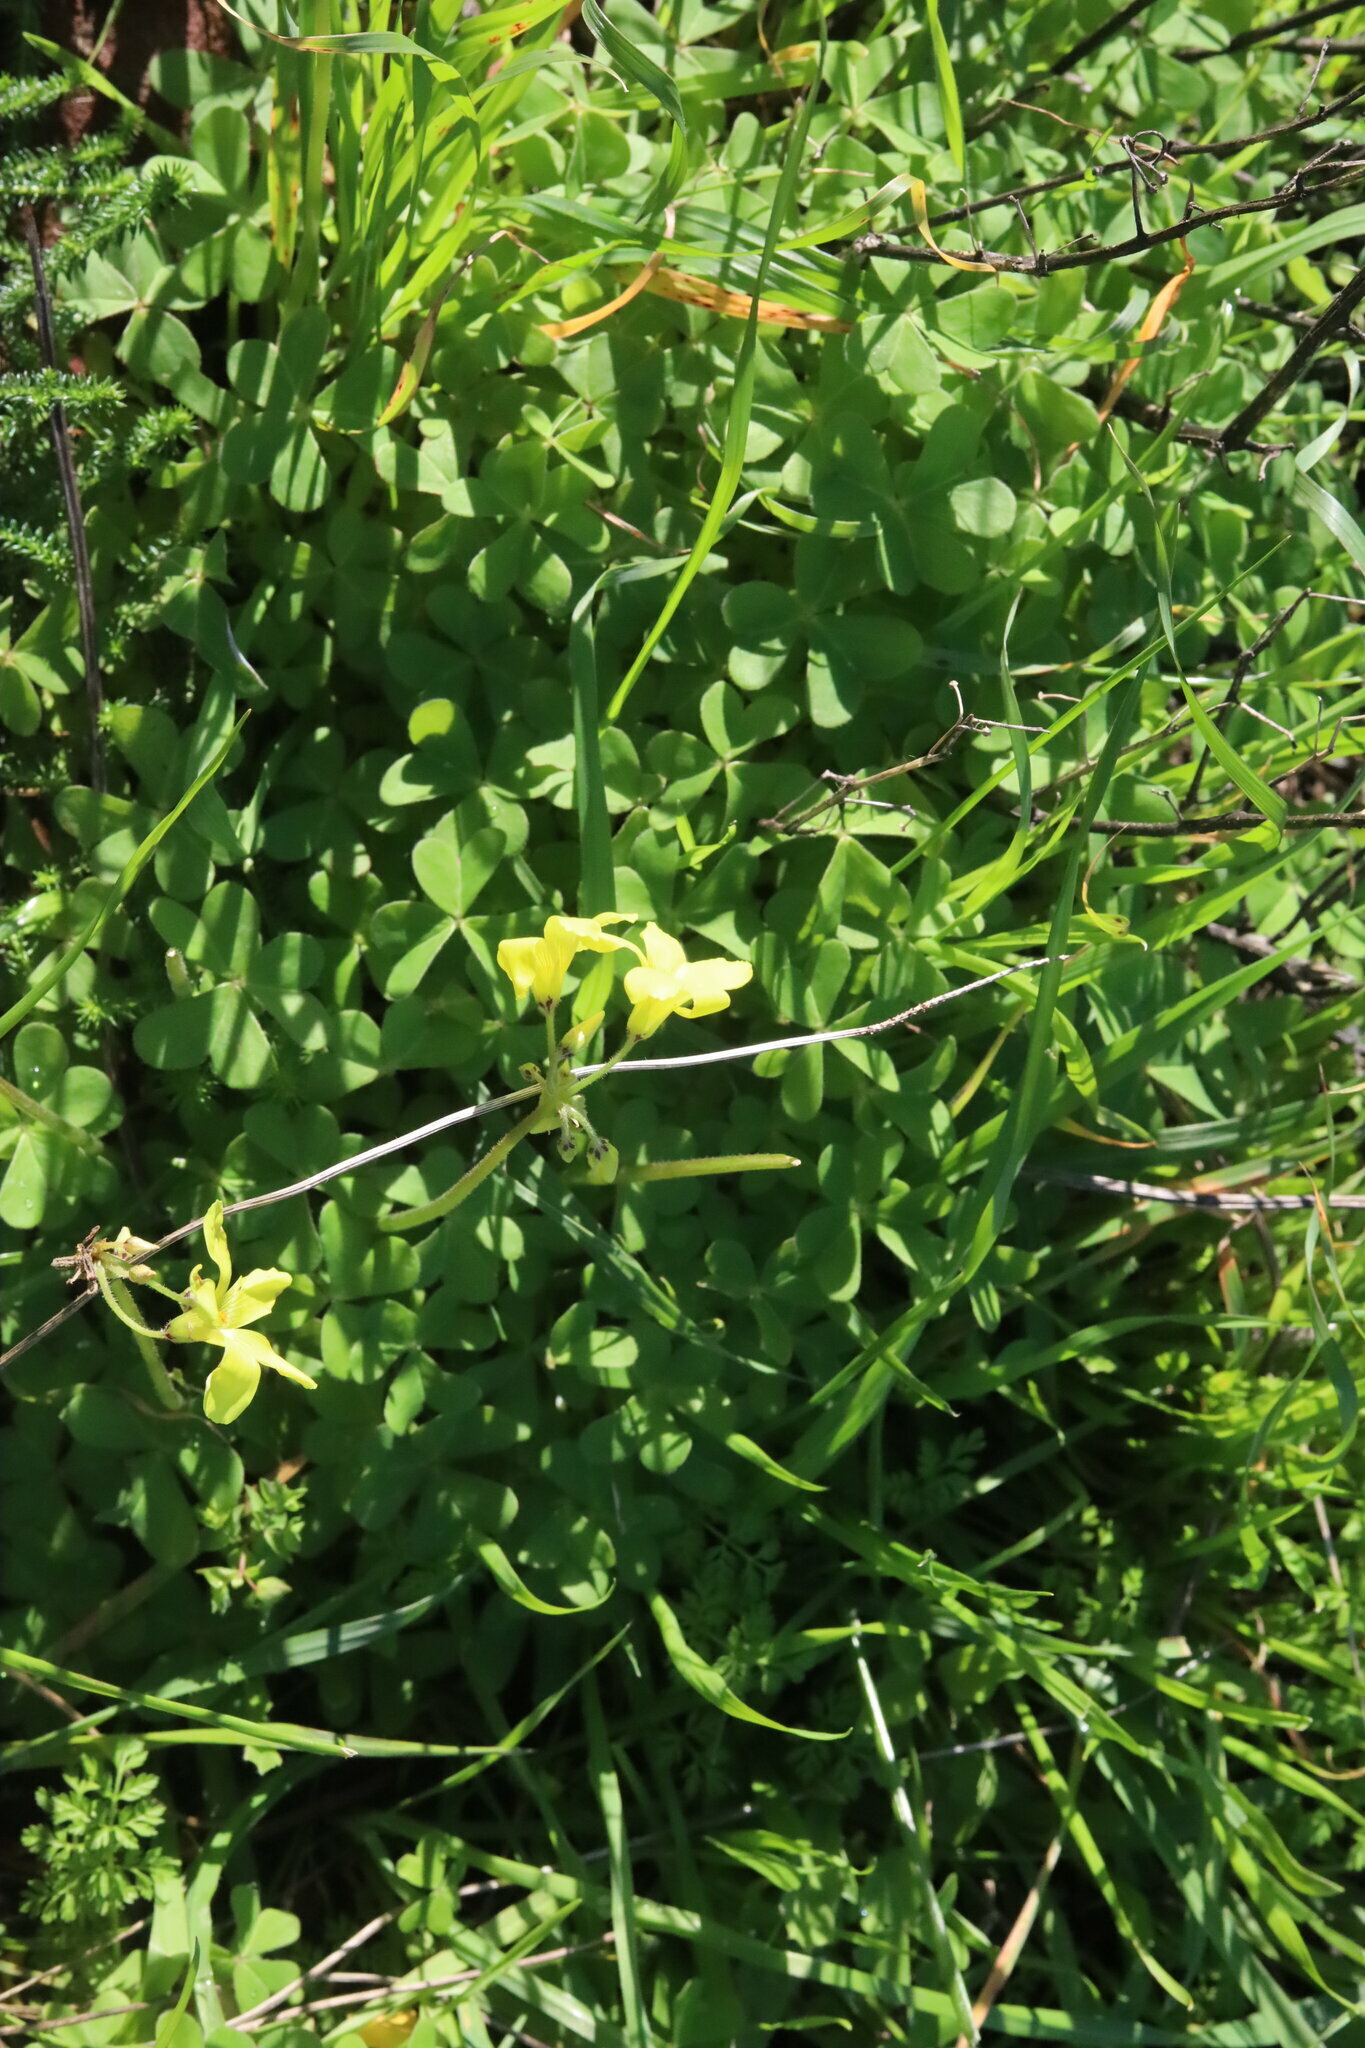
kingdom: Plantae
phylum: Tracheophyta
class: Magnoliopsida
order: Oxalidales
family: Oxalidaceae
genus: Oxalis
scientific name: Oxalis pes-caprae
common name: Bermuda-buttercup
